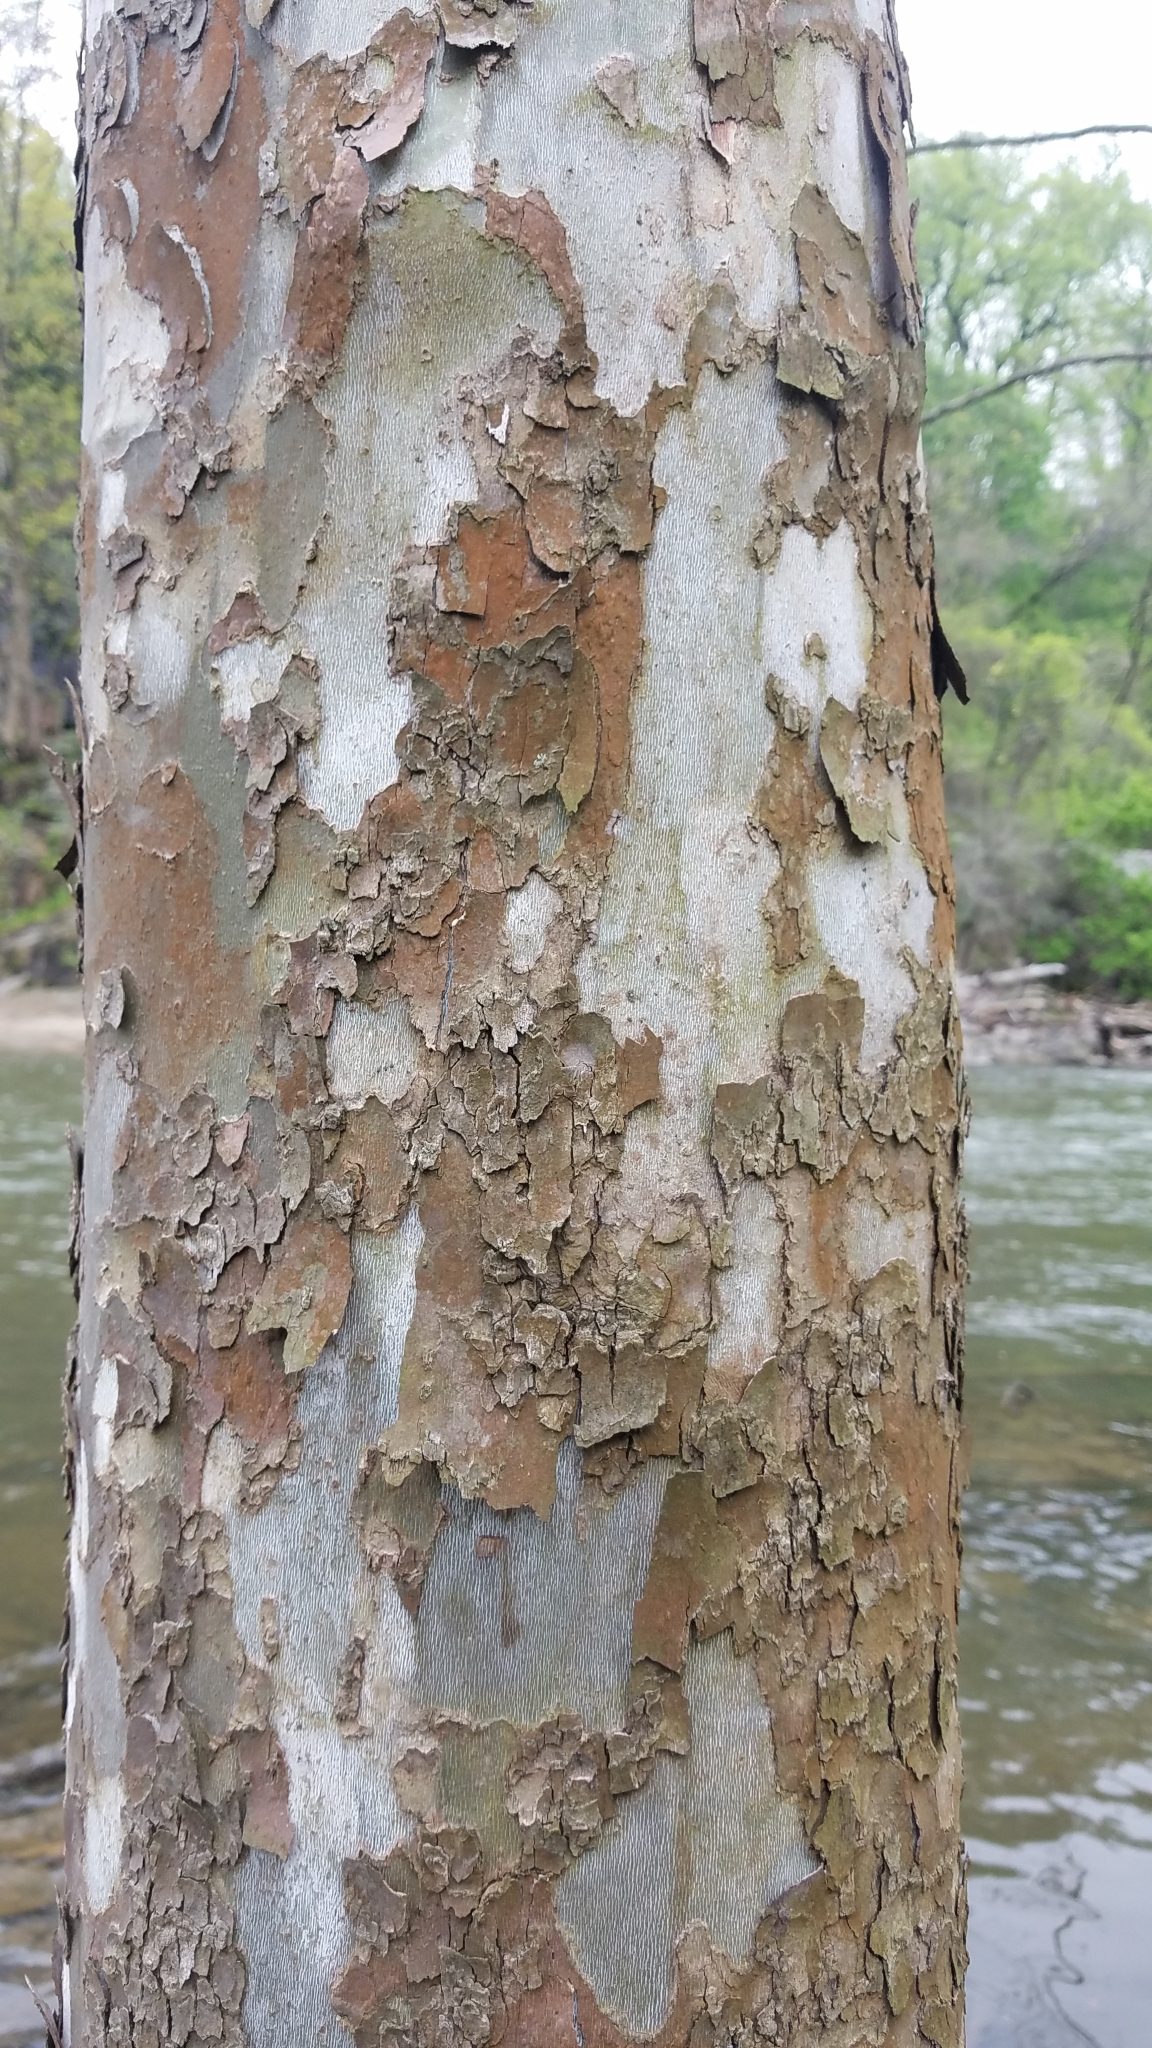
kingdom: Plantae
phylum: Tracheophyta
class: Magnoliopsida
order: Proteales
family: Platanaceae
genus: Platanus
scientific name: Platanus occidentalis
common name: American sycamore
